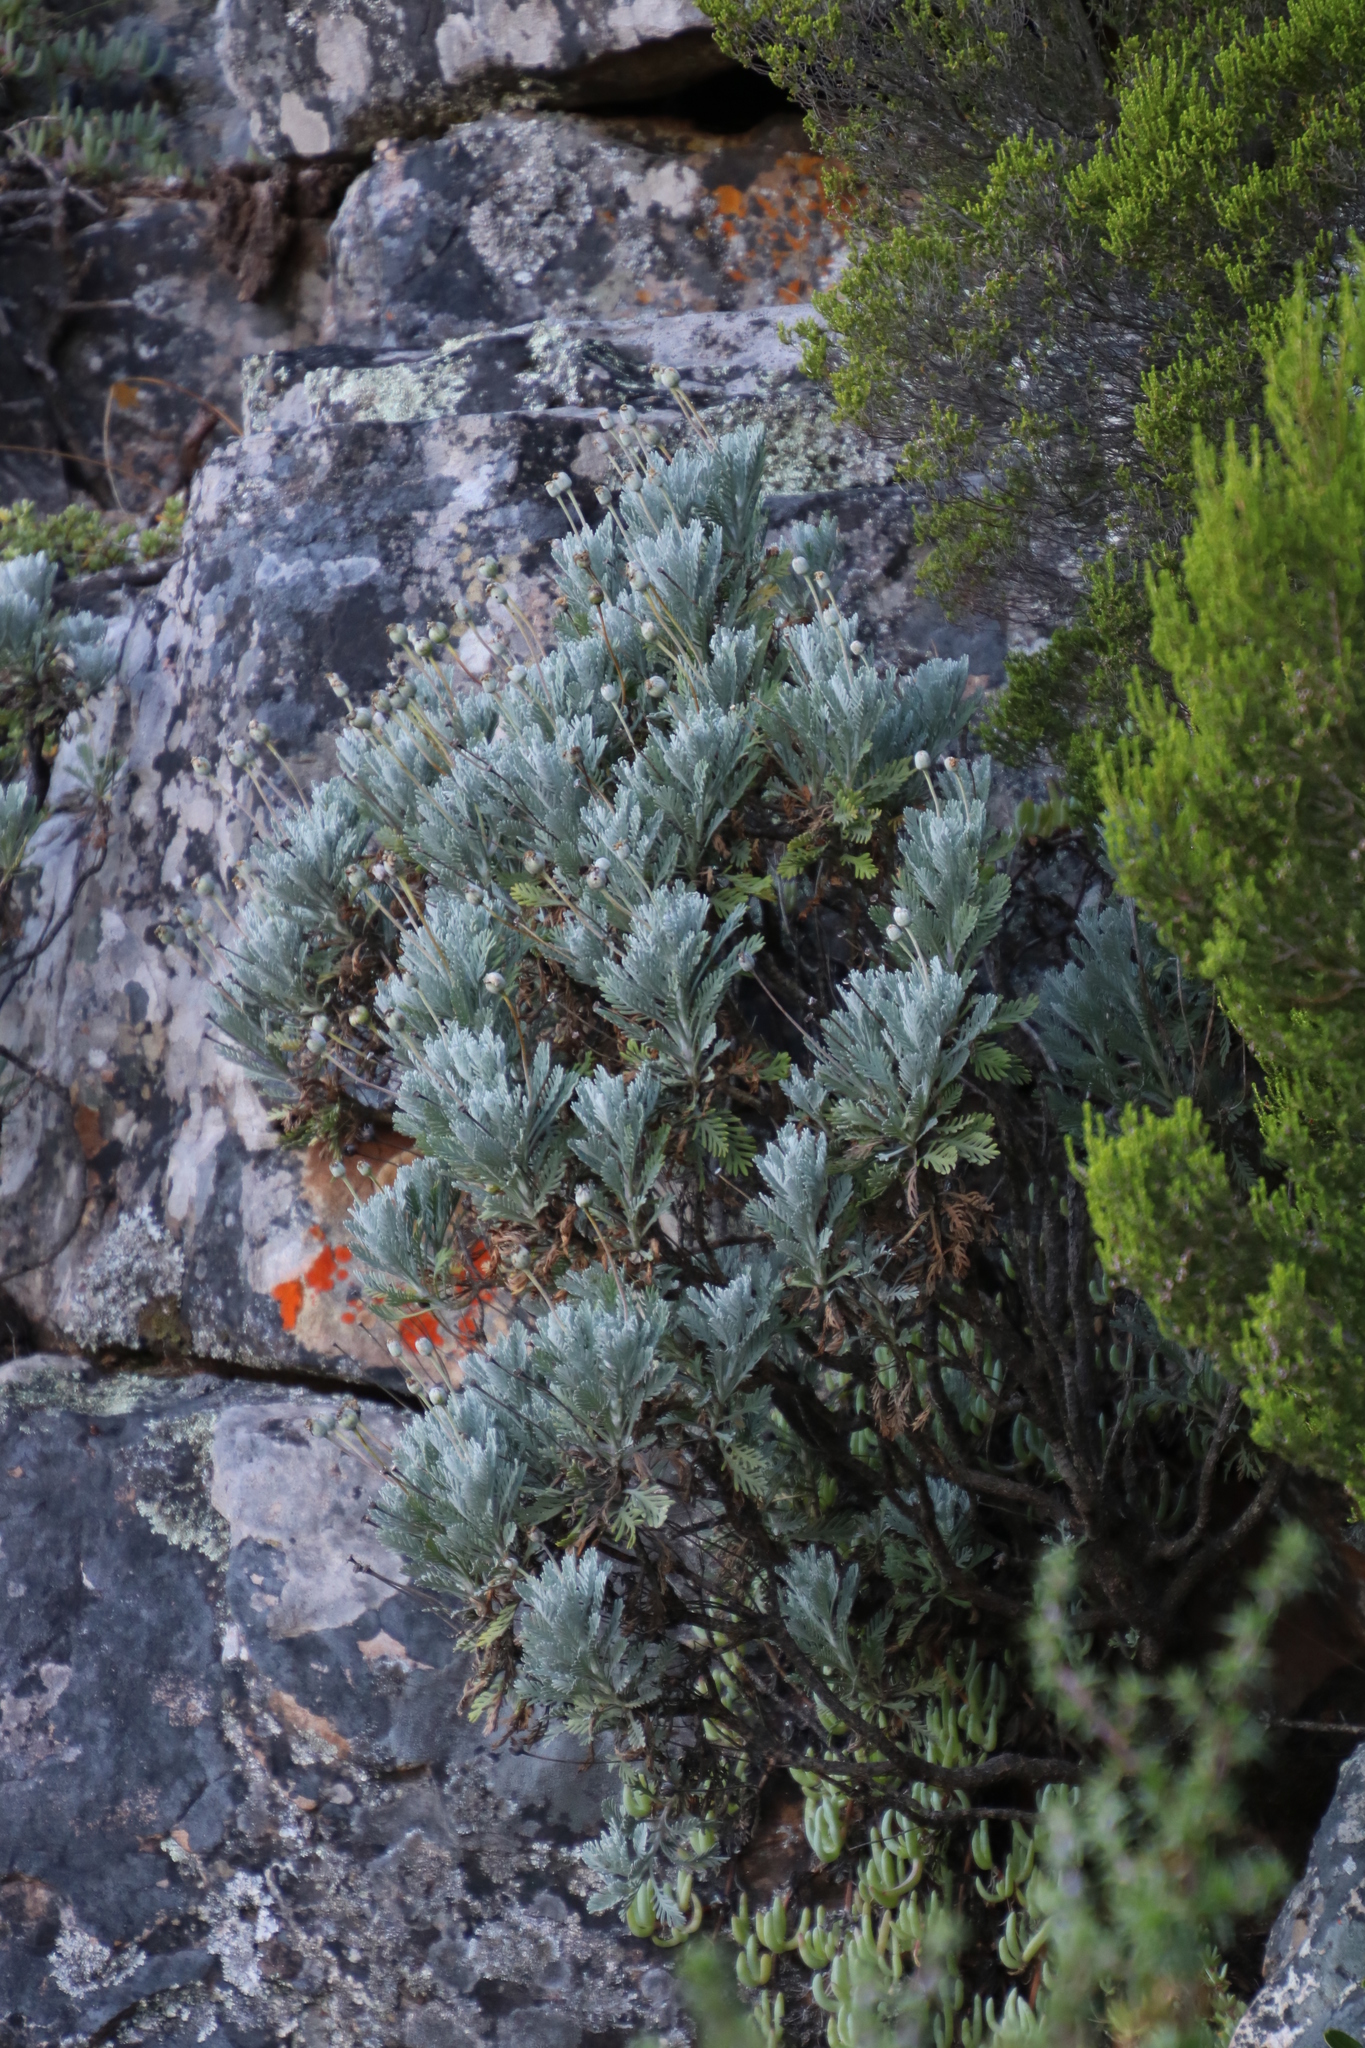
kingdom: Plantae
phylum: Tracheophyta
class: Magnoliopsida
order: Asterales
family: Asteraceae
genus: Euryops
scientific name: Euryops pectinatus
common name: Gray-leaf euryops
